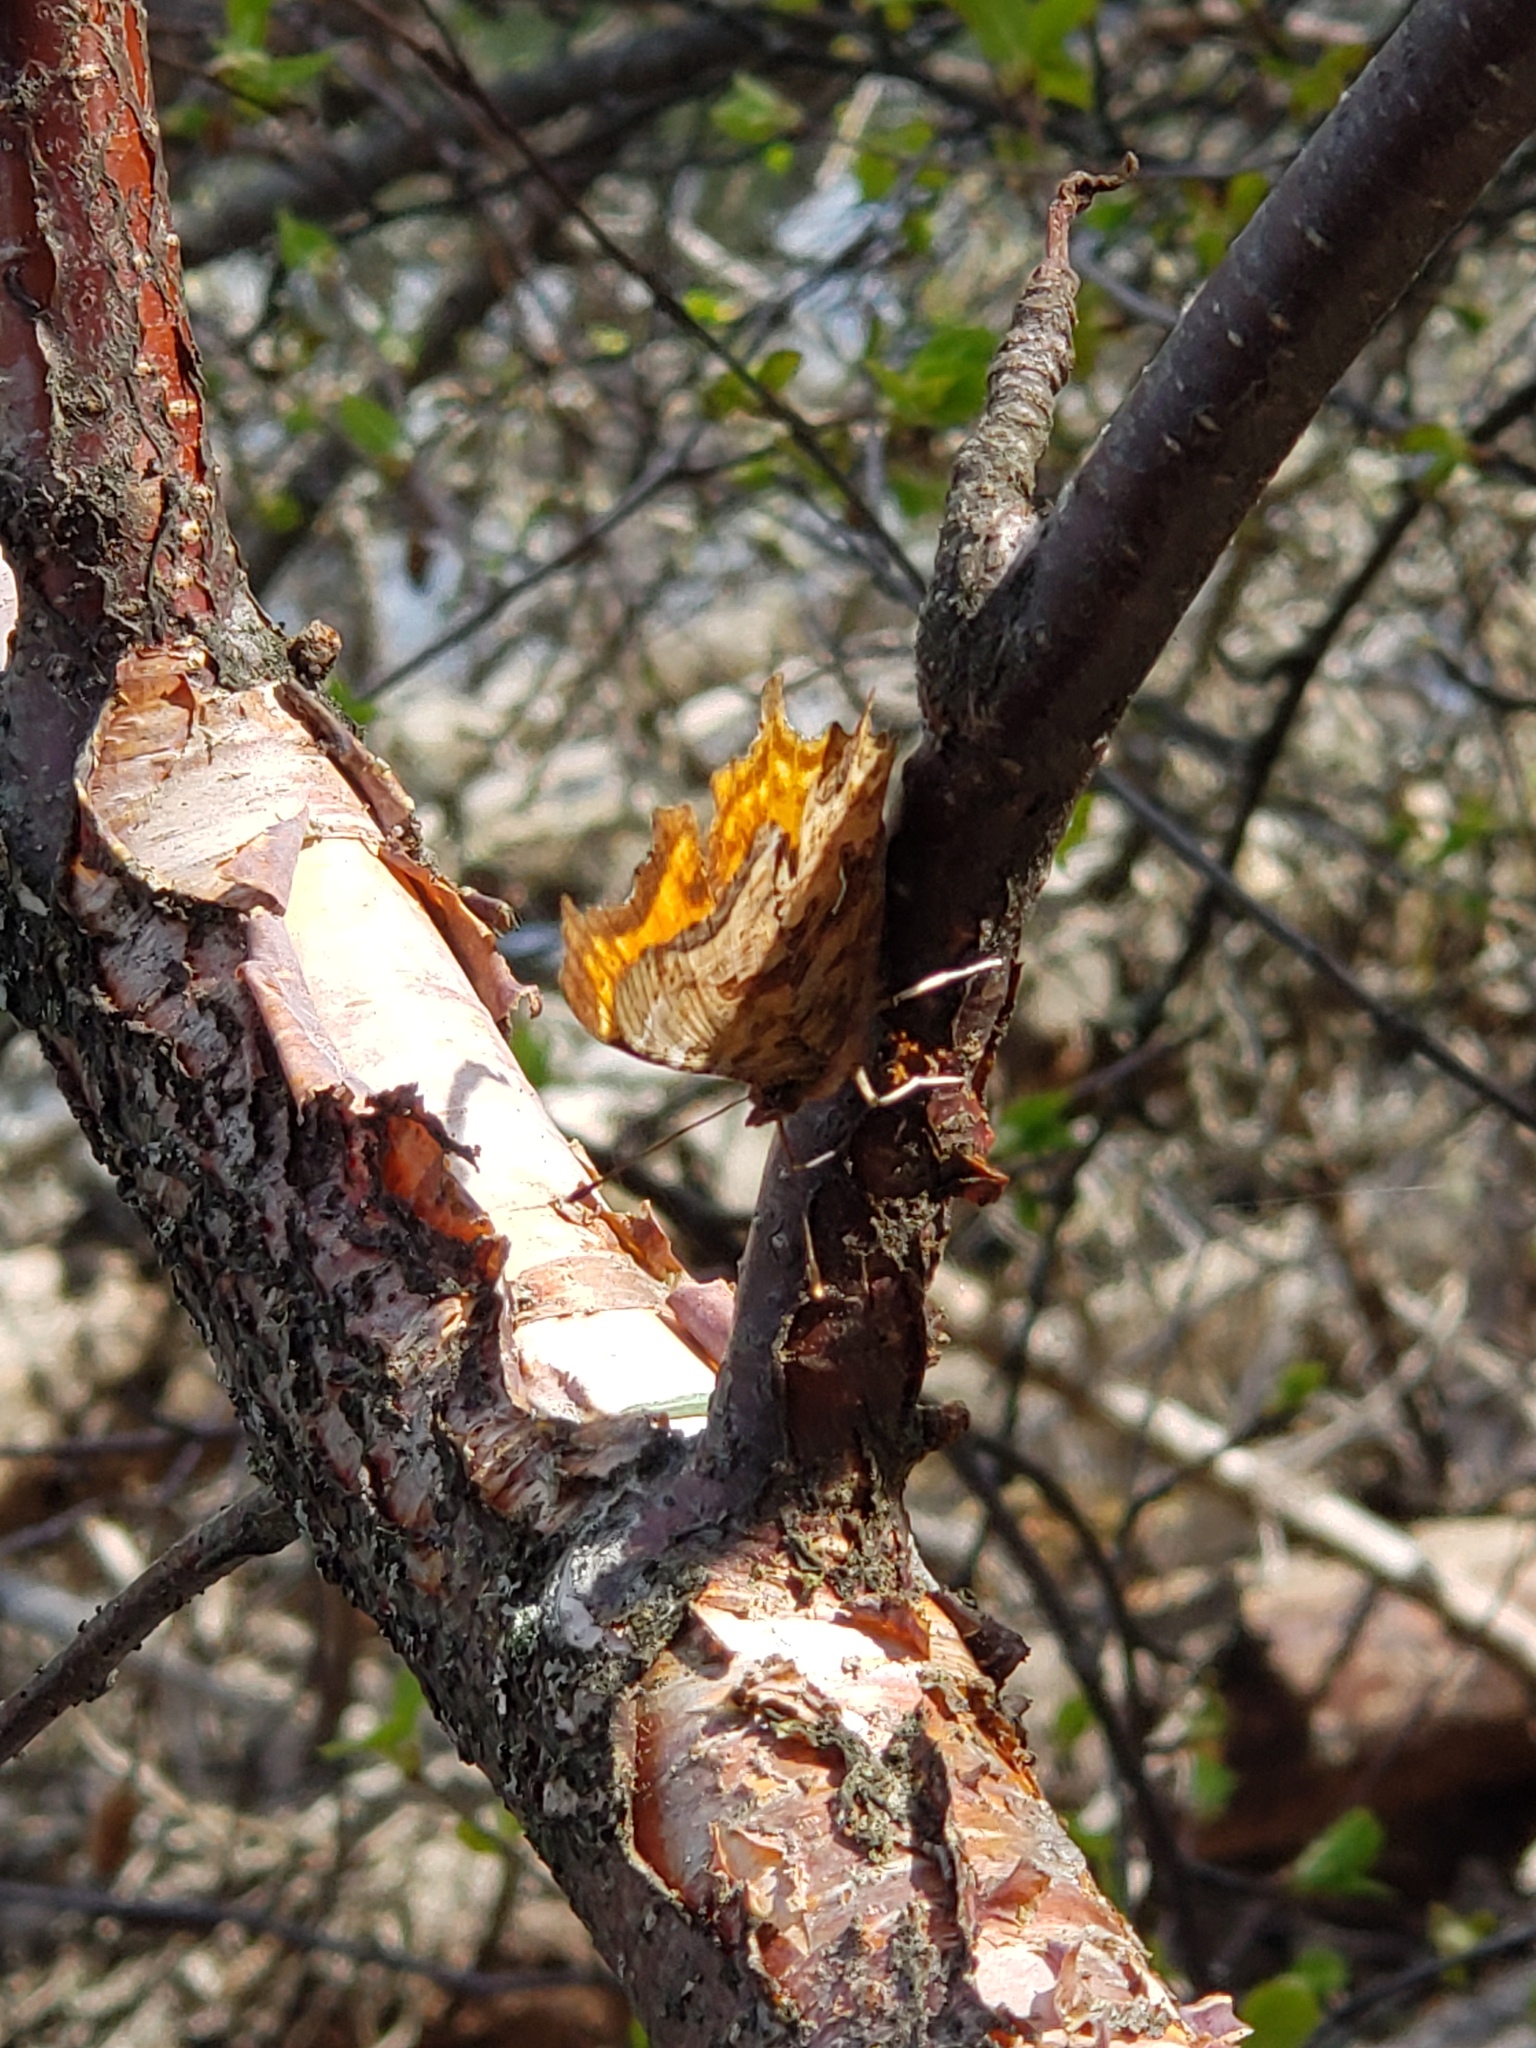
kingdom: Animalia
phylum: Arthropoda
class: Insecta
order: Lepidoptera
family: Nymphalidae
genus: Polygonia
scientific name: Polygonia satyrus
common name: Satyr angle wing
